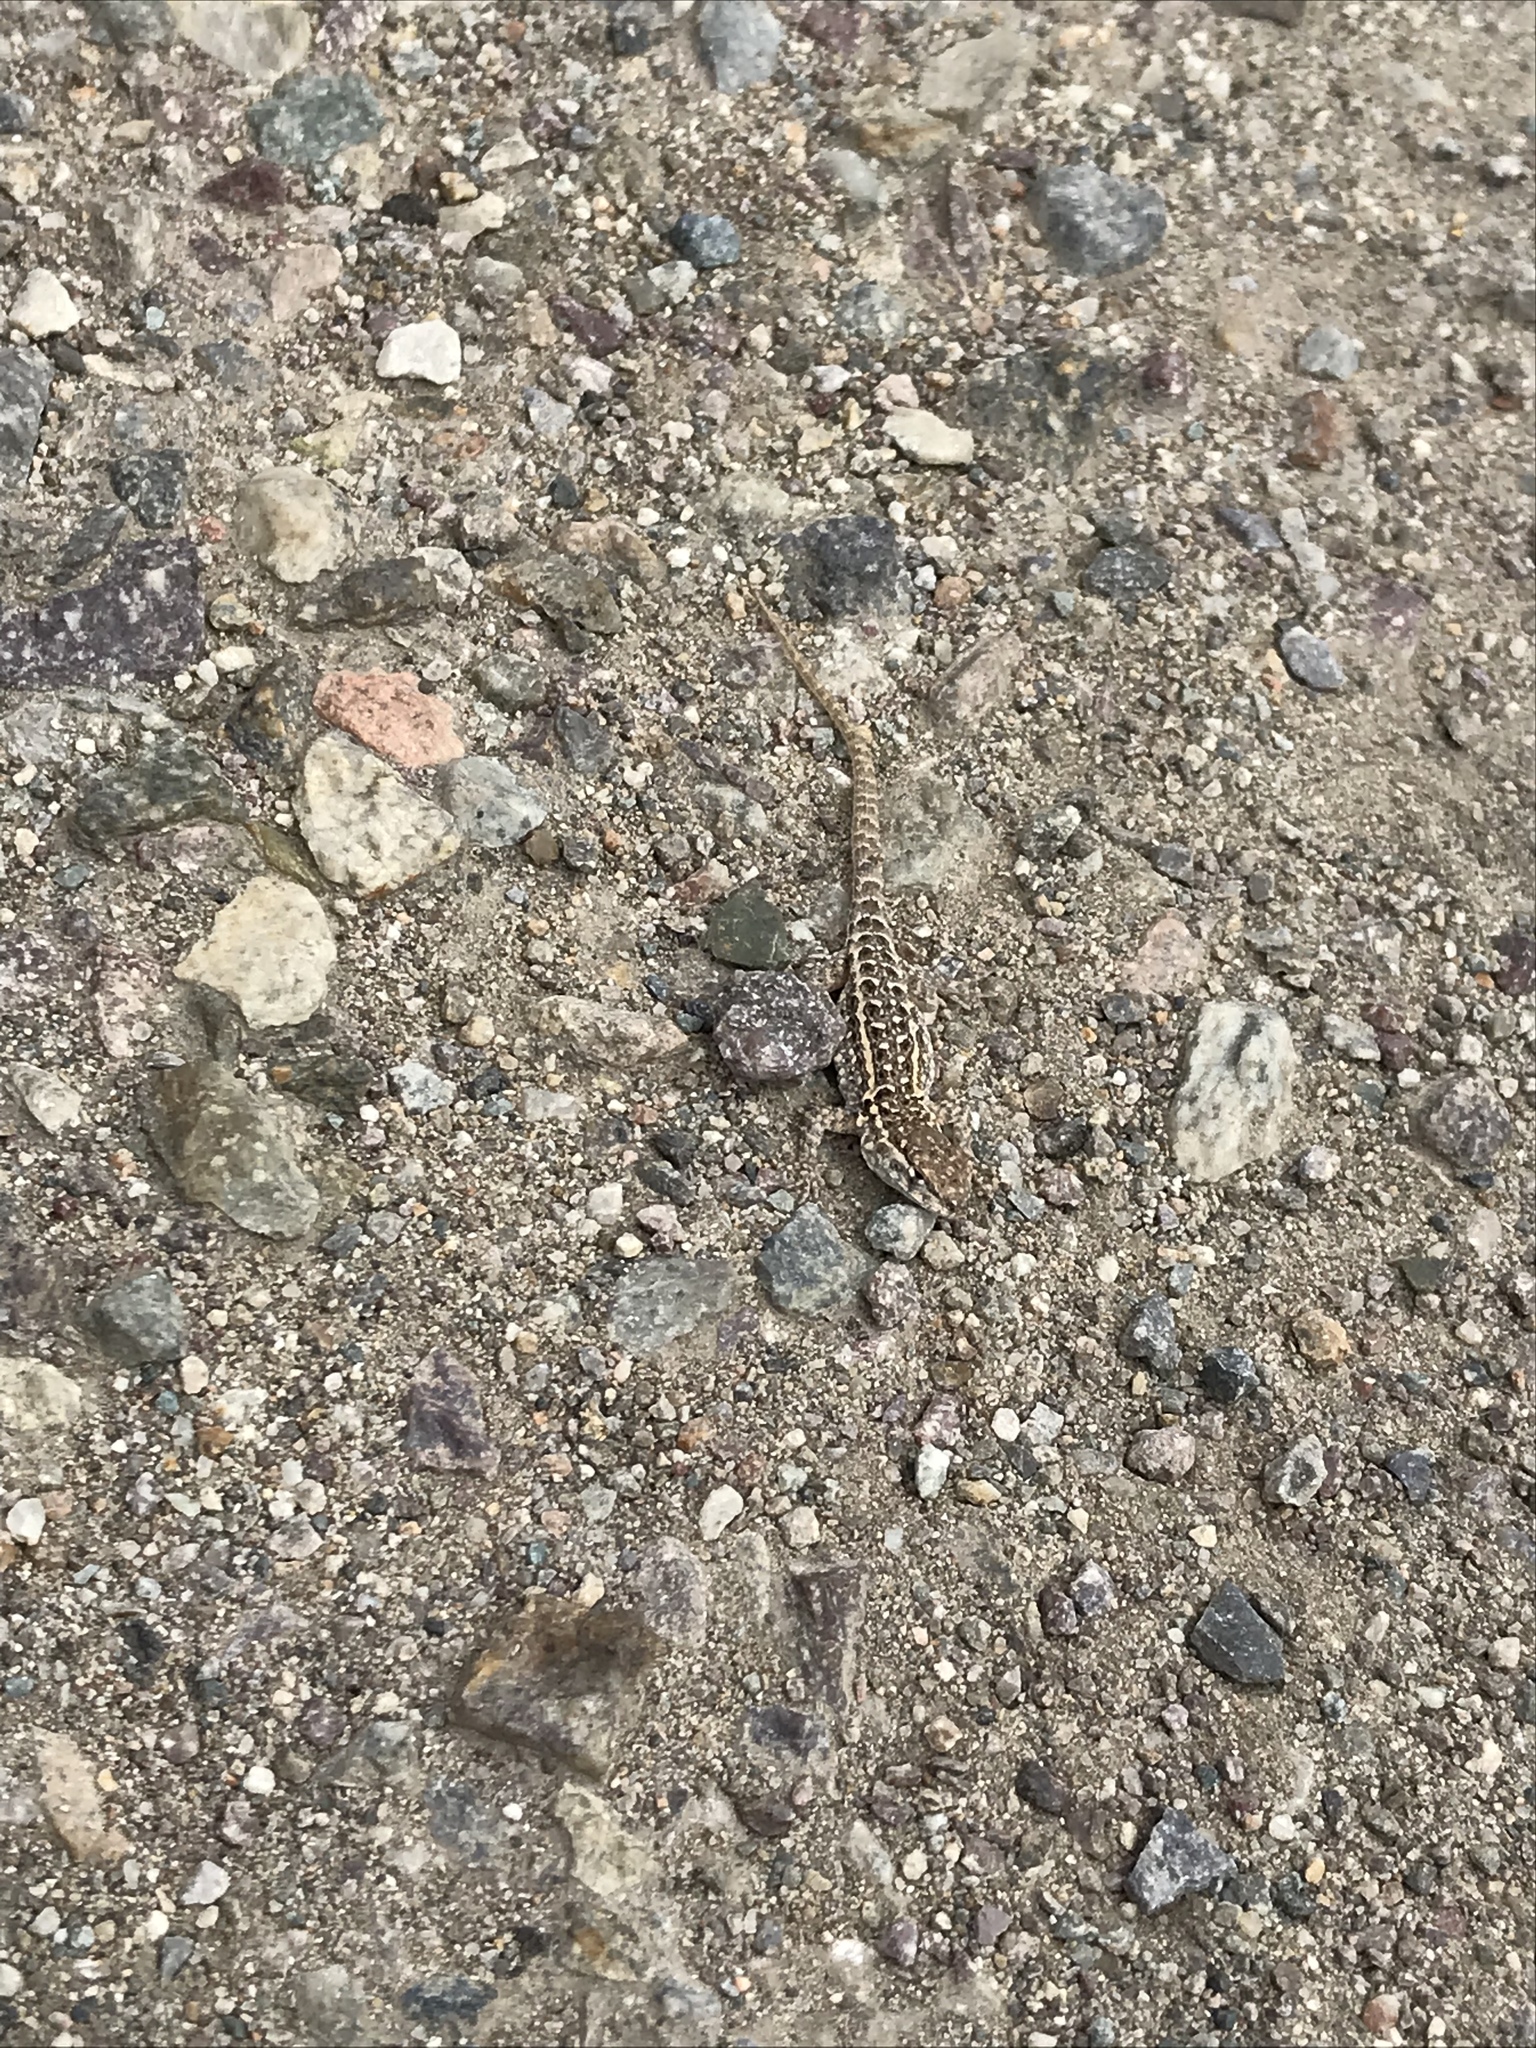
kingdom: Animalia
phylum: Chordata
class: Squamata
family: Phrynosomatidae
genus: Uta
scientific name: Uta stansburiana
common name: Side-blotched lizard
